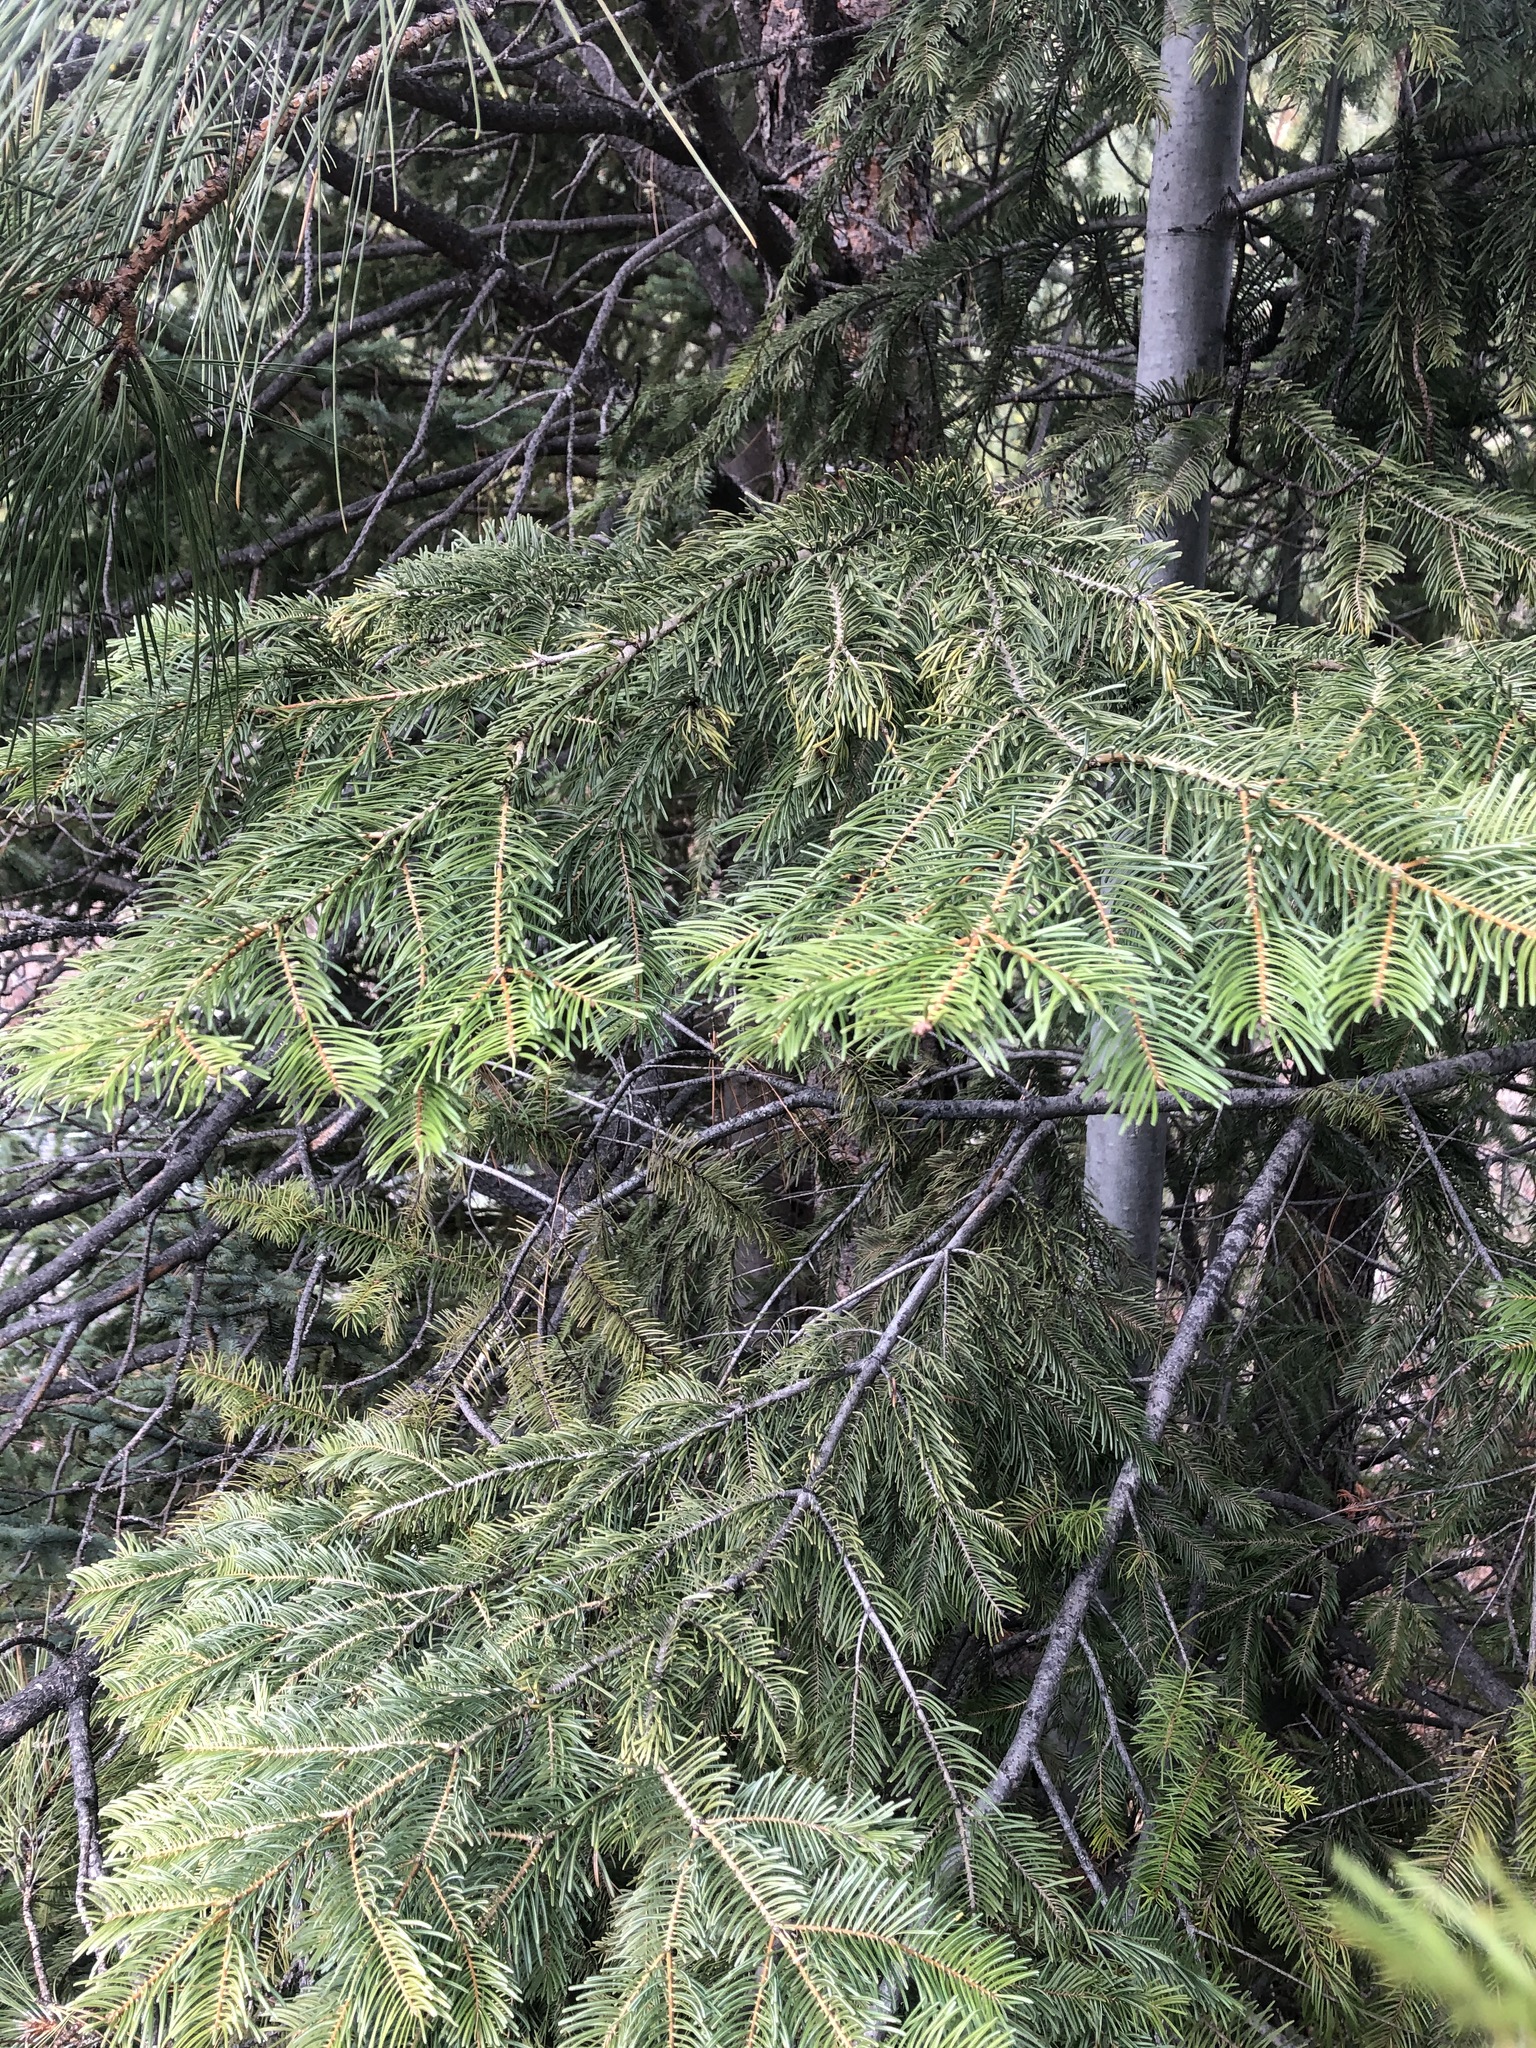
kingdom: Plantae
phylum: Tracheophyta
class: Pinopsida
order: Pinales
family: Pinaceae
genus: Abies
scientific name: Abies grandis
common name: Giant fir
